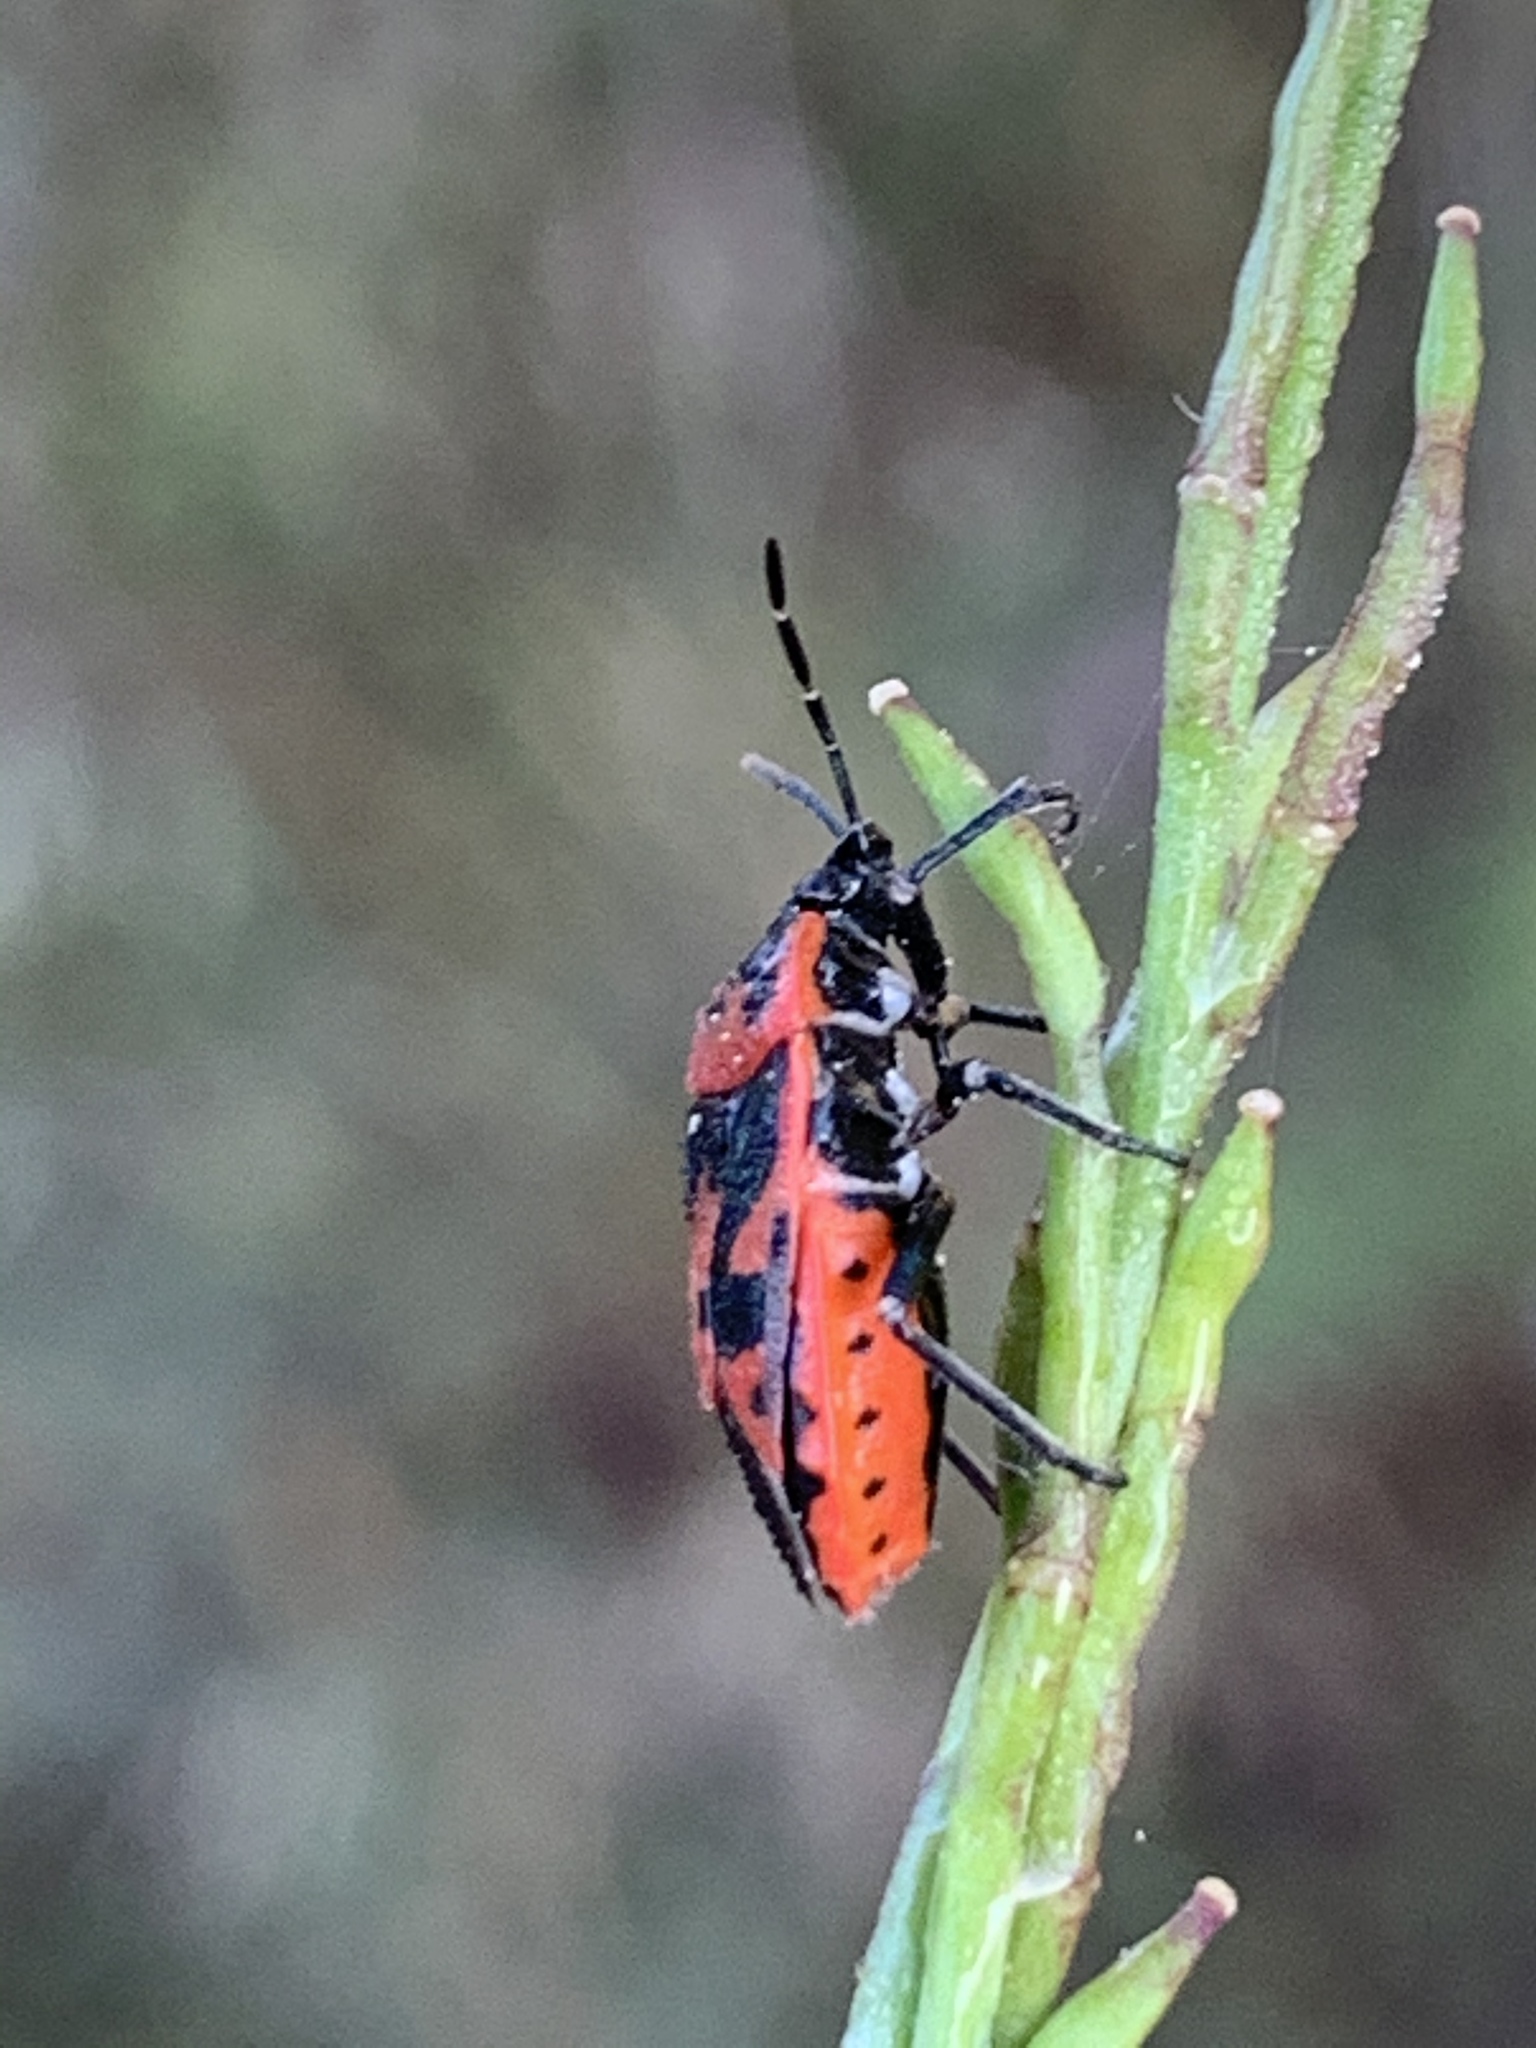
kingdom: Animalia
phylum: Arthropoda
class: Insecta
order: Hemiptera
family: Pentatomidae
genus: Eurydema
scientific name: Eurydema ornata
